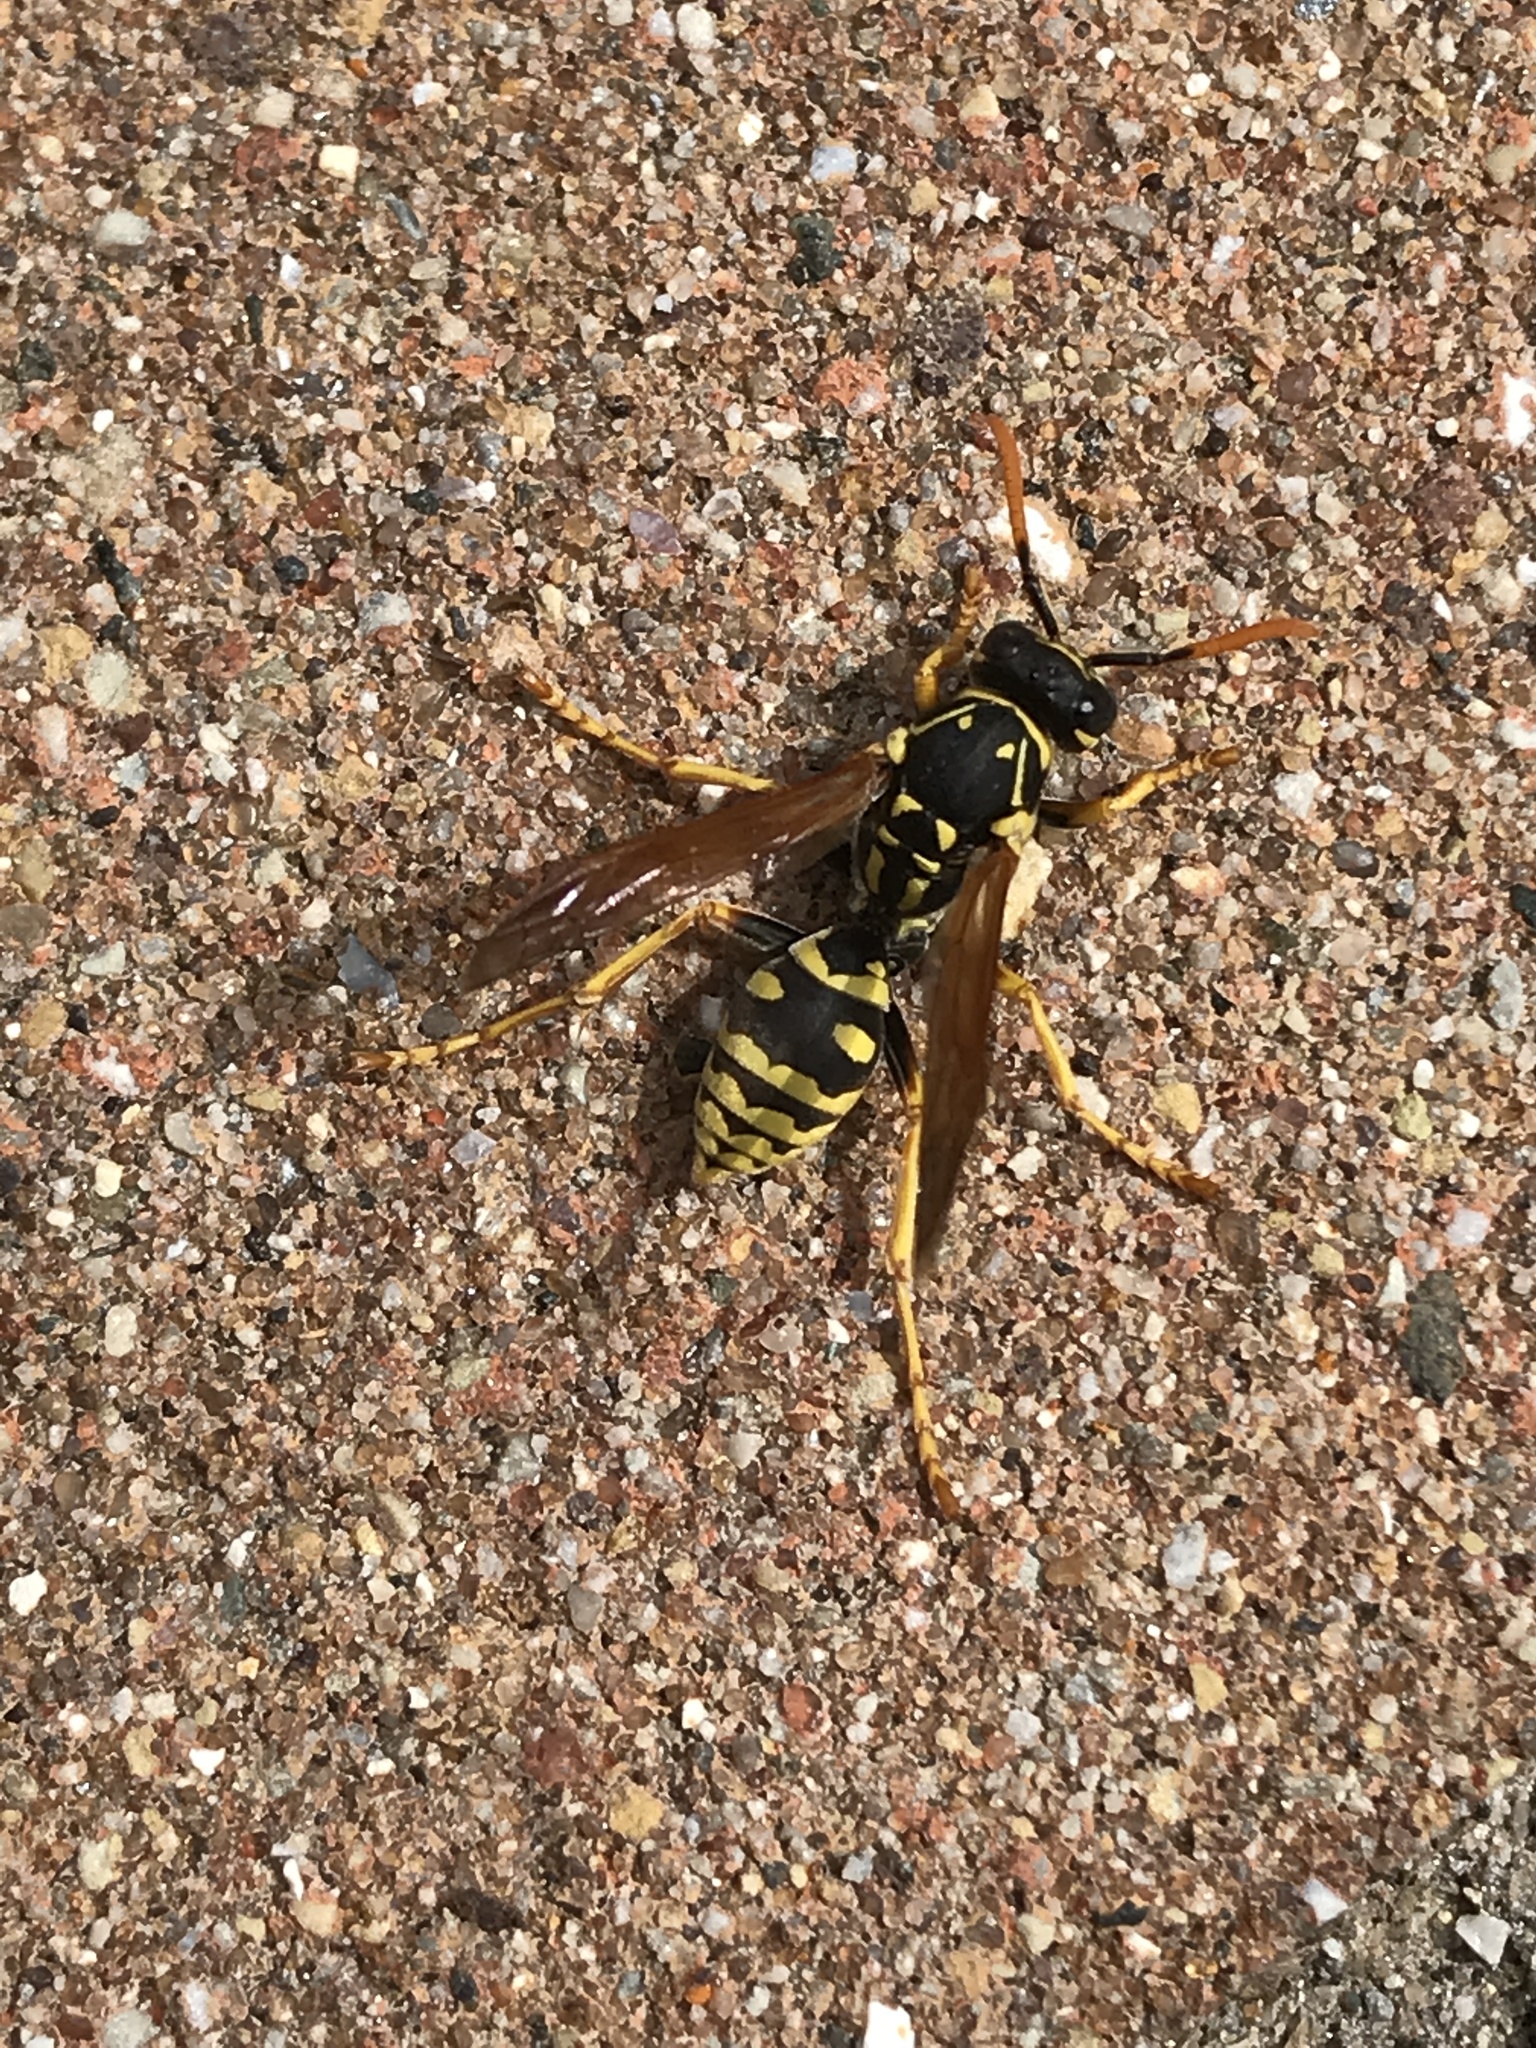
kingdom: Animalia
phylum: Arthropoda
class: Insecta
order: Hymenoptera
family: Eumenidae
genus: Polistes
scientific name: Polistes dominula
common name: Paper wasp
